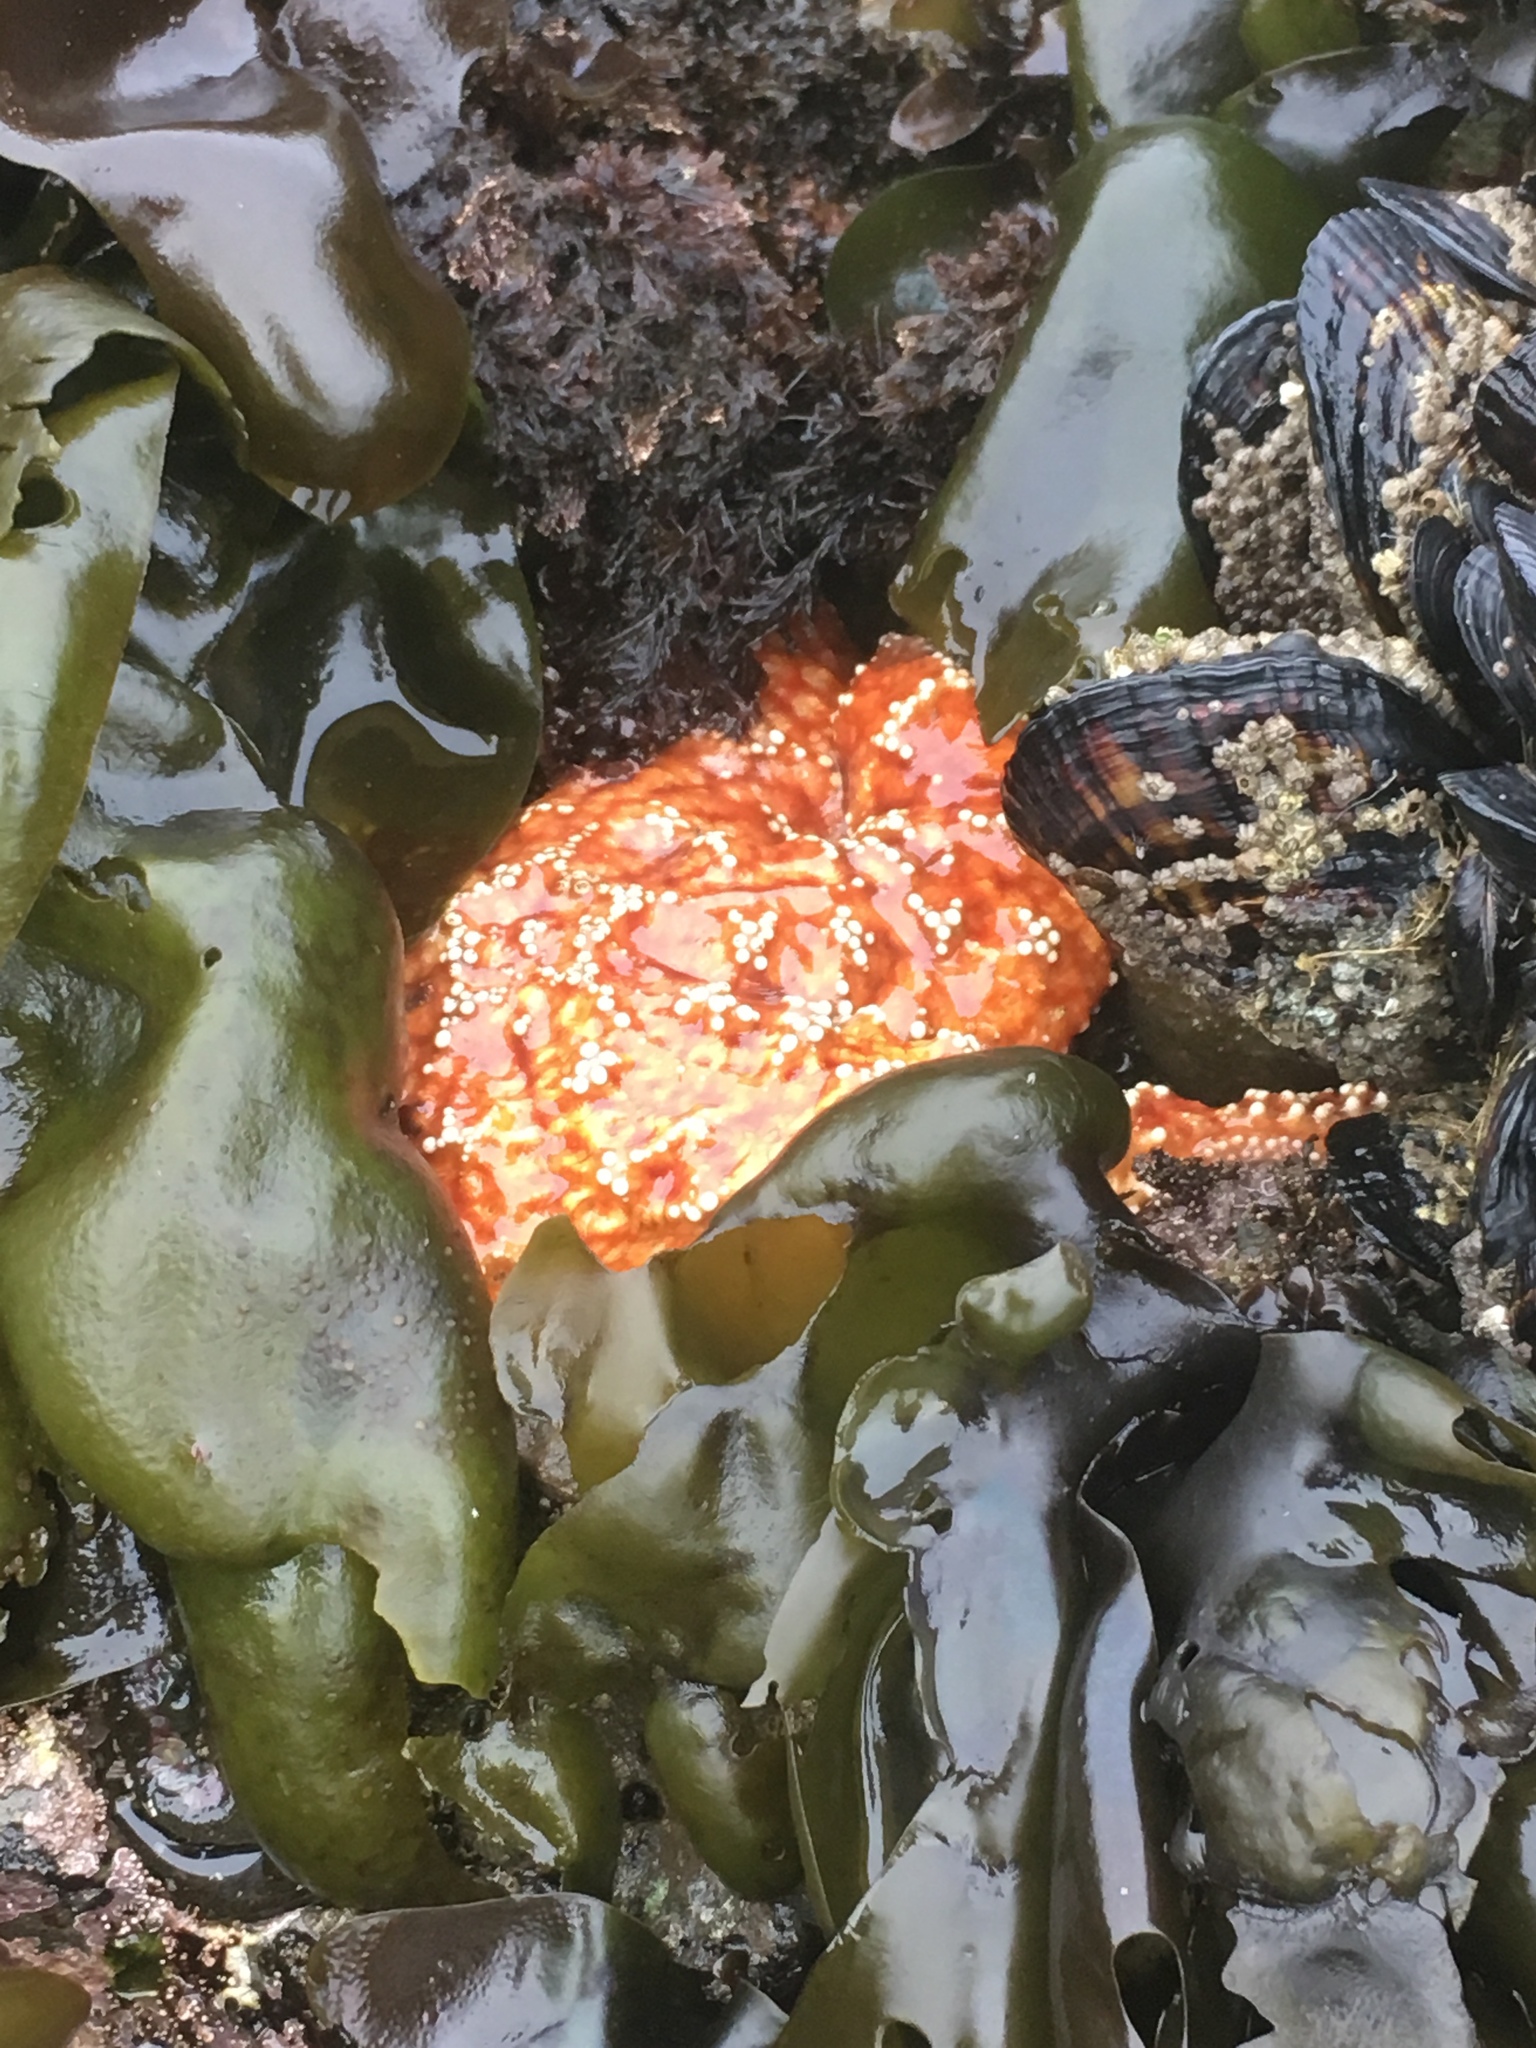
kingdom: Animalia
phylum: Echinodermata
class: Asteroidea
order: Forcipulatida
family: Asteriidae
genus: Pisaster
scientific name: Pisaster ochraceus
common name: Ochre stars
